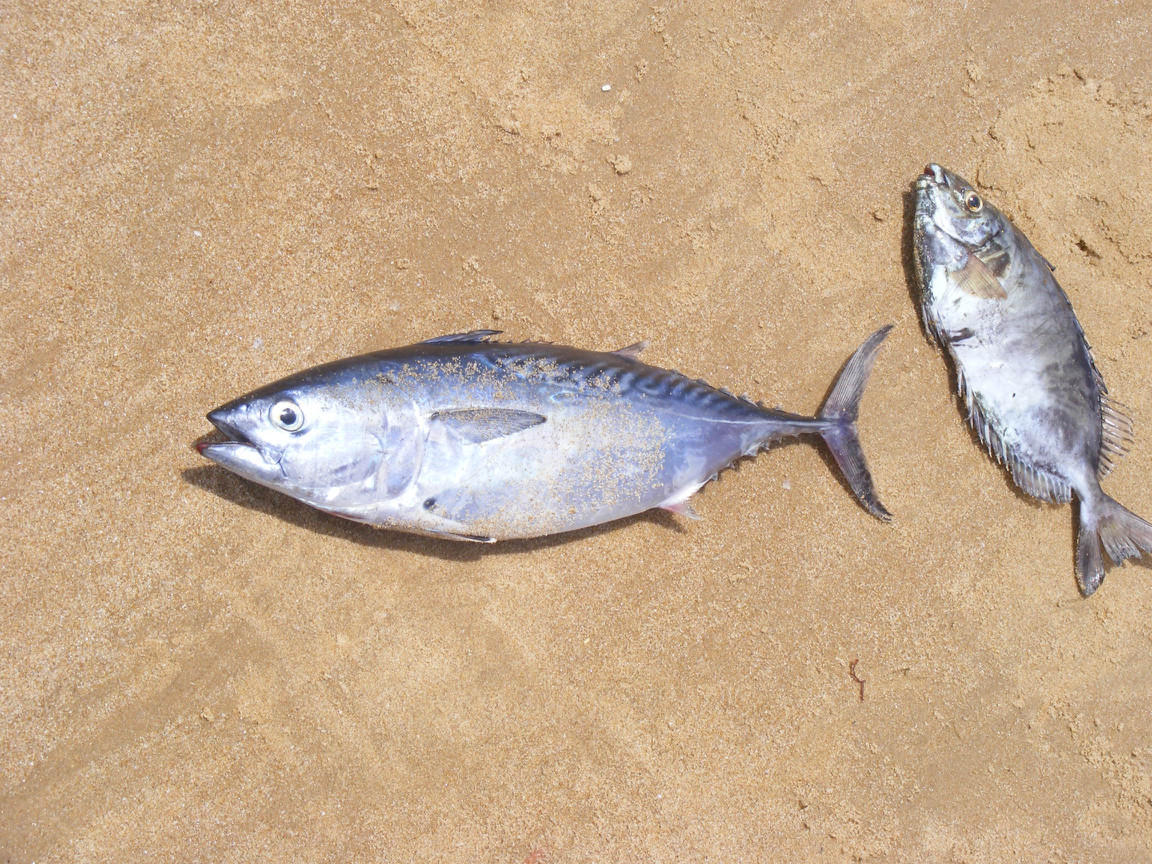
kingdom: Animalia
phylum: Chordata
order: Perciformes
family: Scombridae
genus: Euthynnus
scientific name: Euthynnus affinis
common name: Mackerel tuna
